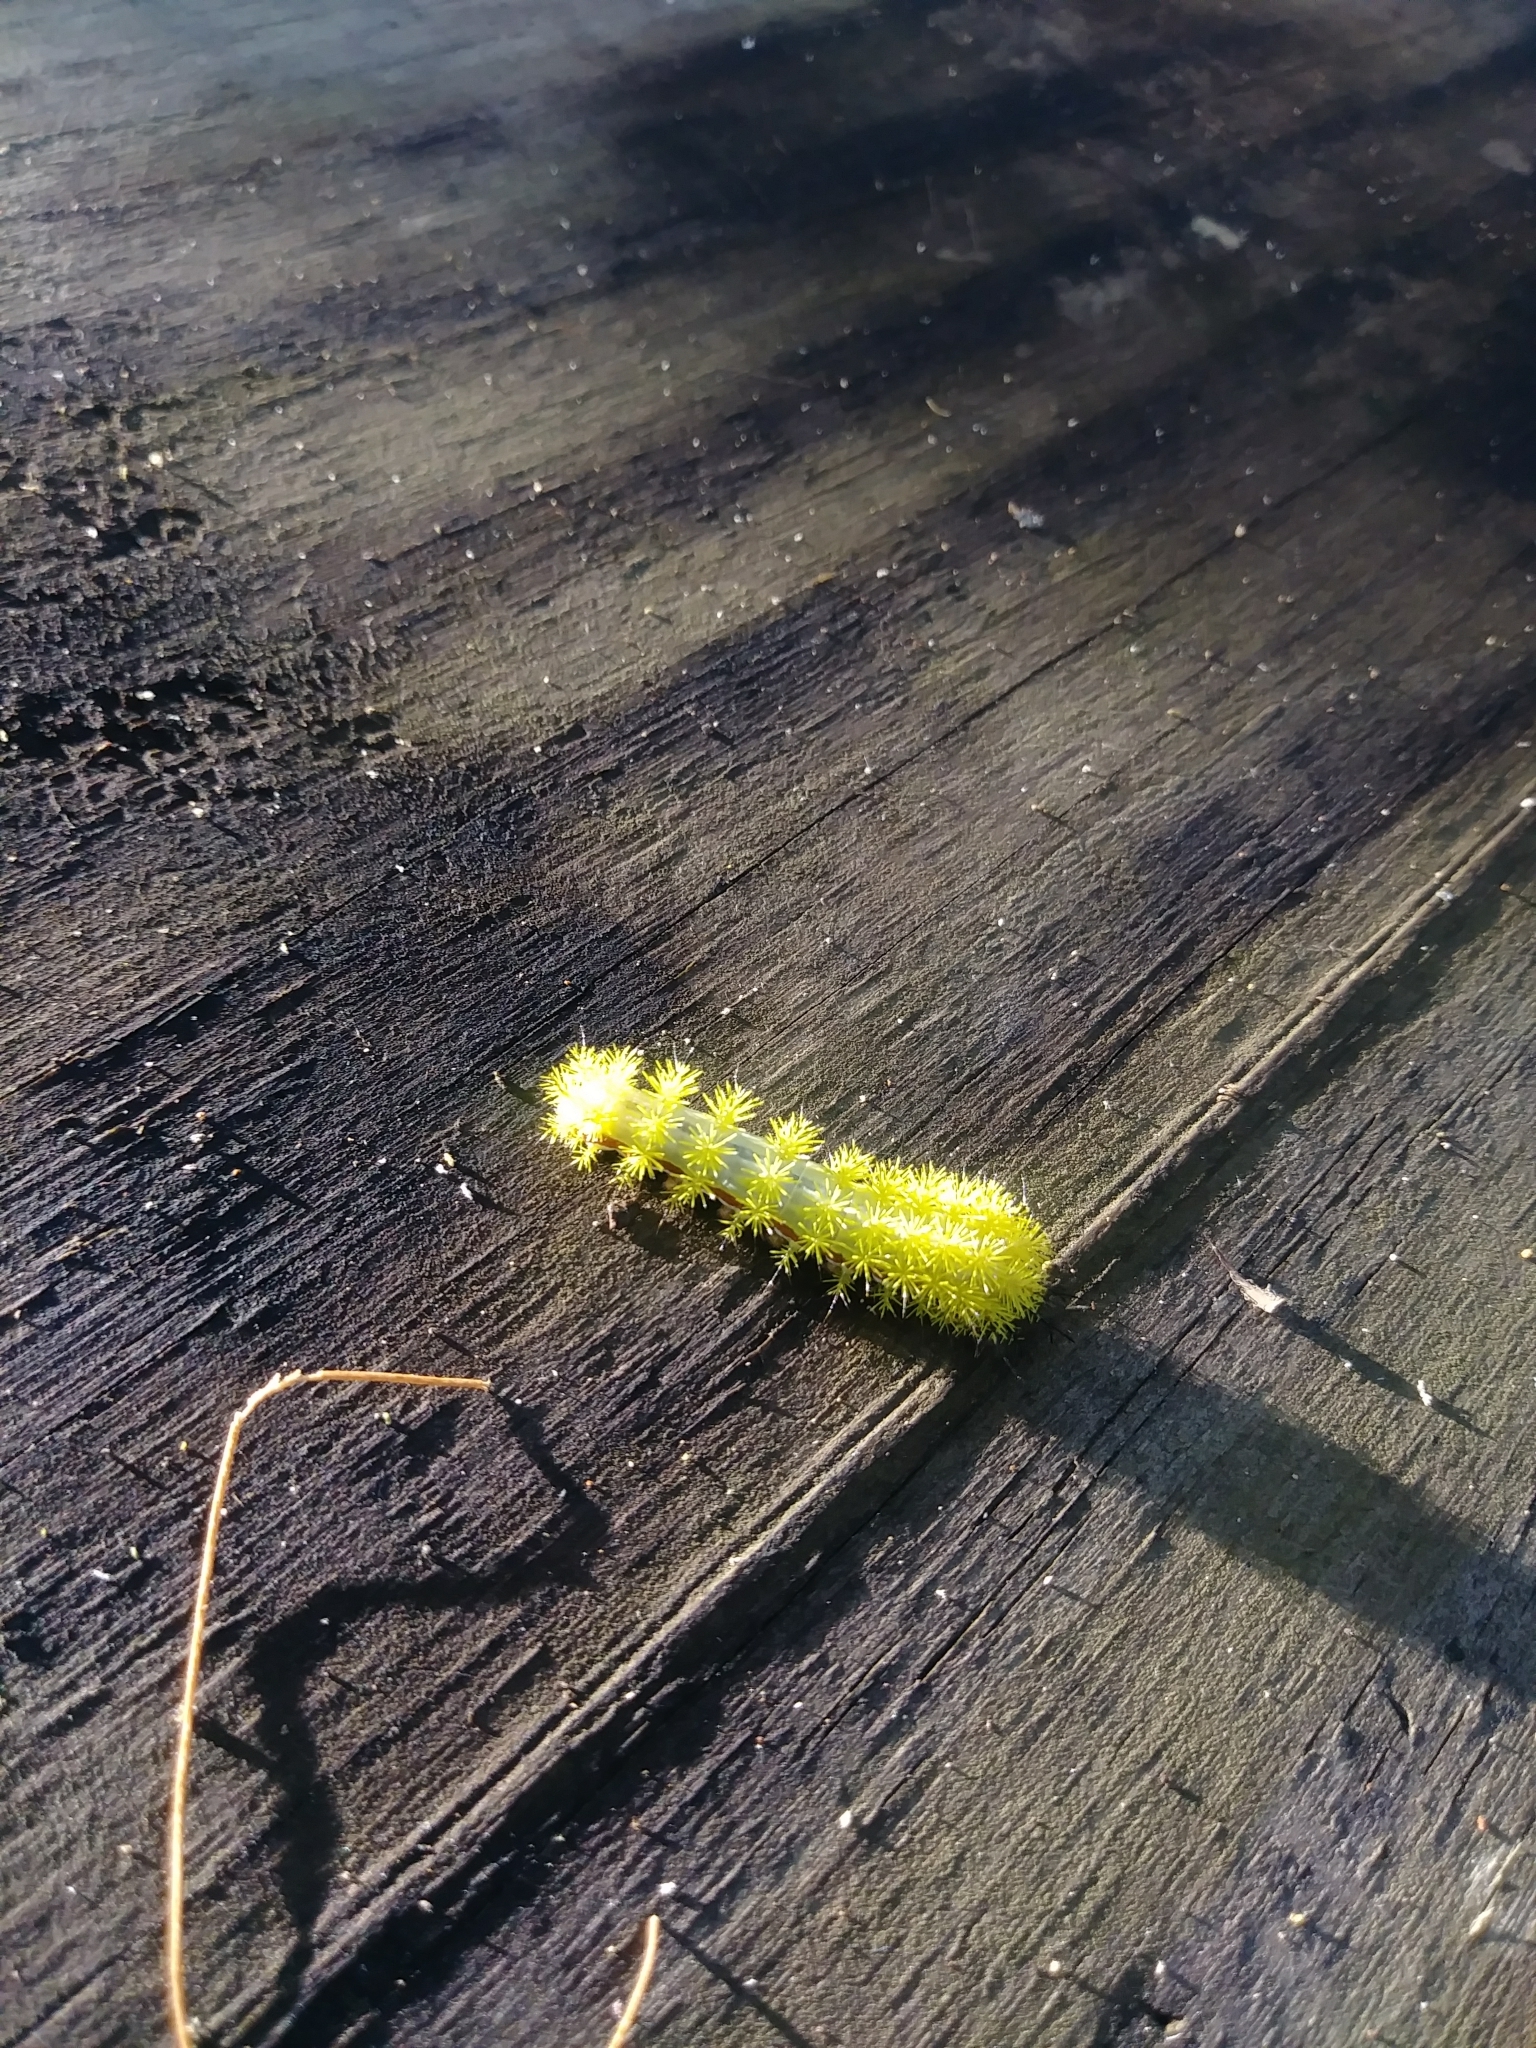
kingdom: Animalia
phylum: Arthropoda
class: Insecta
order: Lepidoptera
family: Saturniidae
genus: Automeris
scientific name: Automeris io
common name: Io moth
